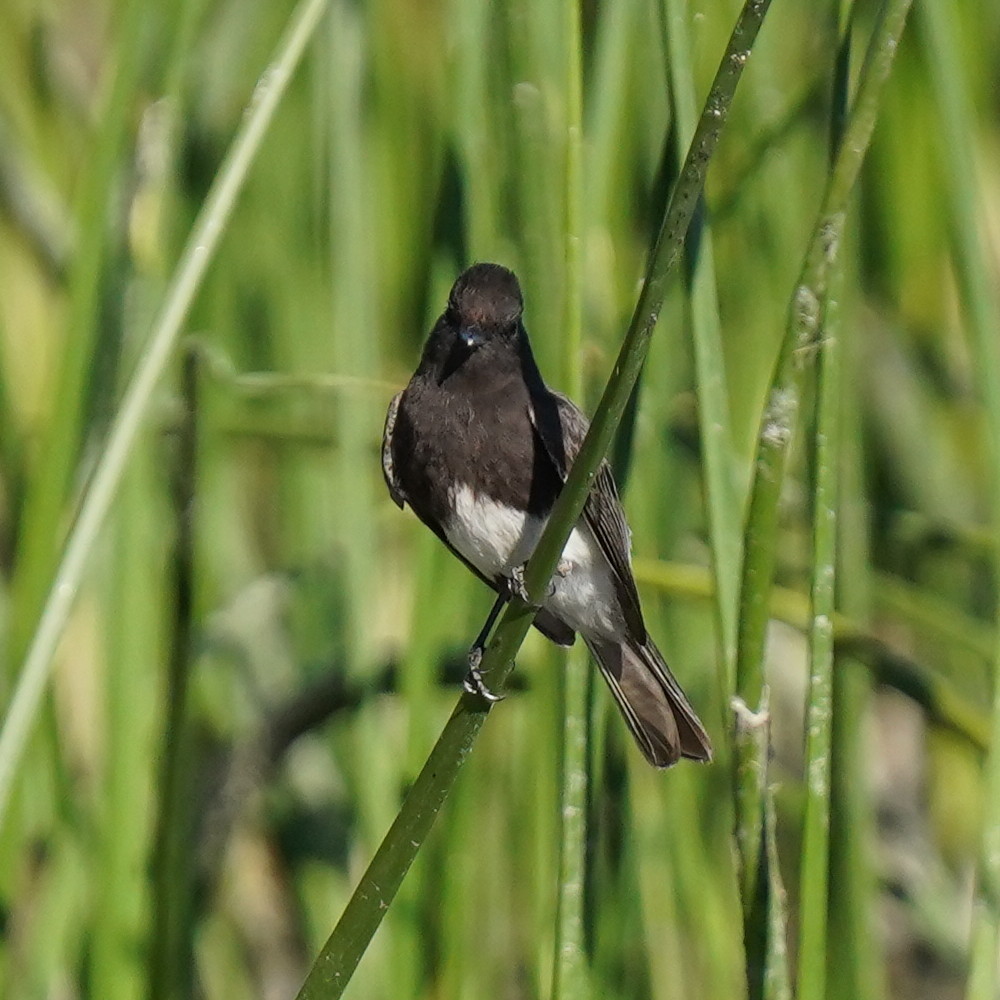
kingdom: Animalia
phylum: Chordata
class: Aves
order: Passeriformes
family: Tyrannidae
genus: Sayornis
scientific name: Sayornis nigricans
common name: Black phoebe
